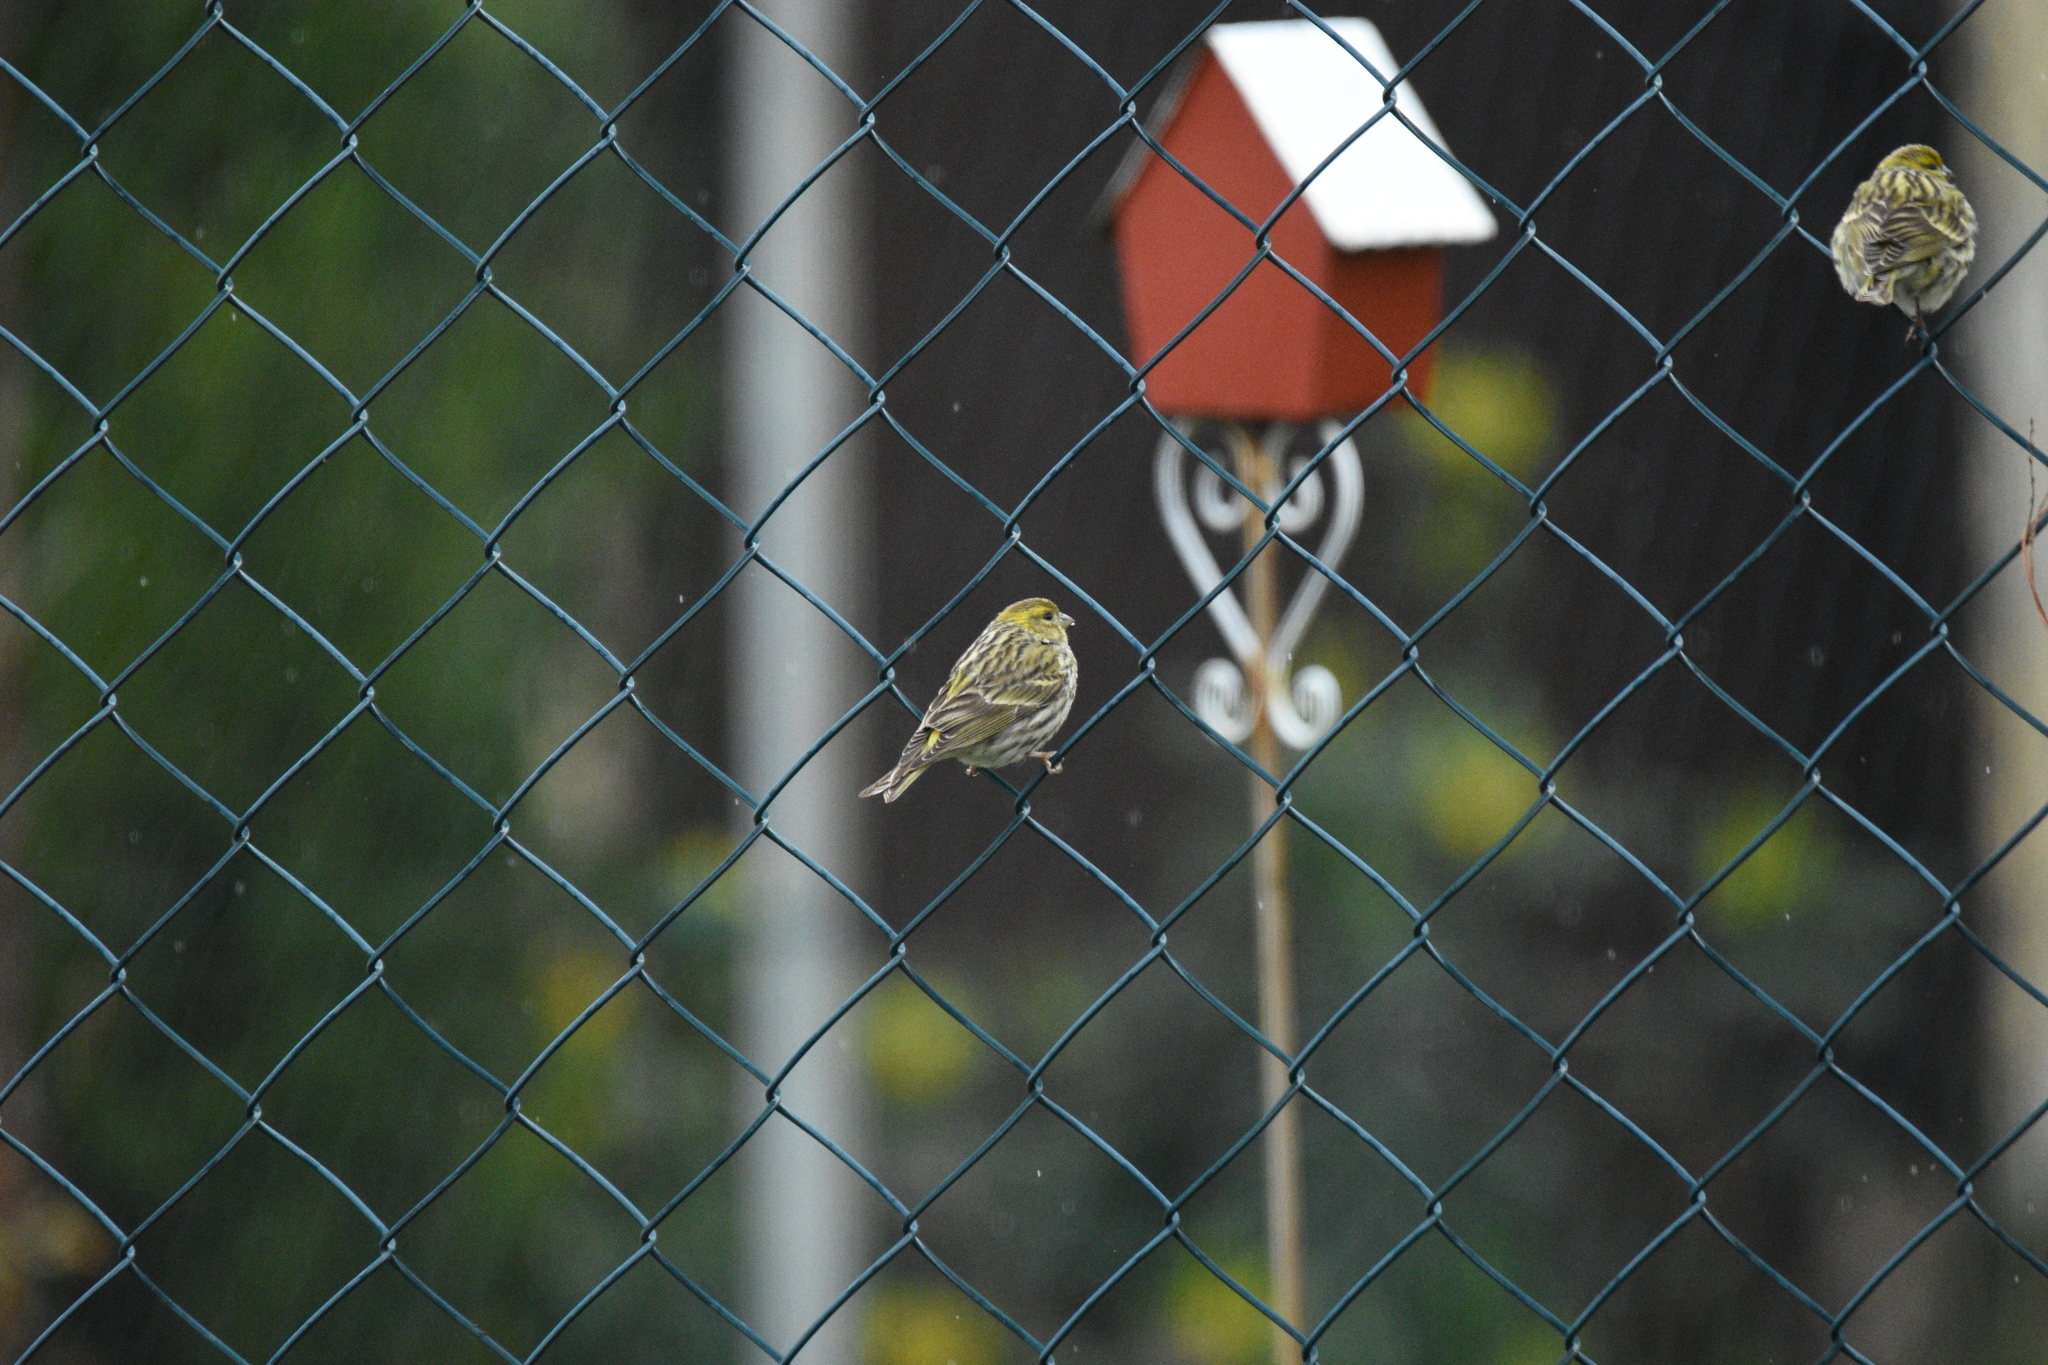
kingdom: Animalia
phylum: Chordata
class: Aves
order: Passeriformes
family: Fringillidae
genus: Serinus
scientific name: Serinus serinus
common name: European serin
